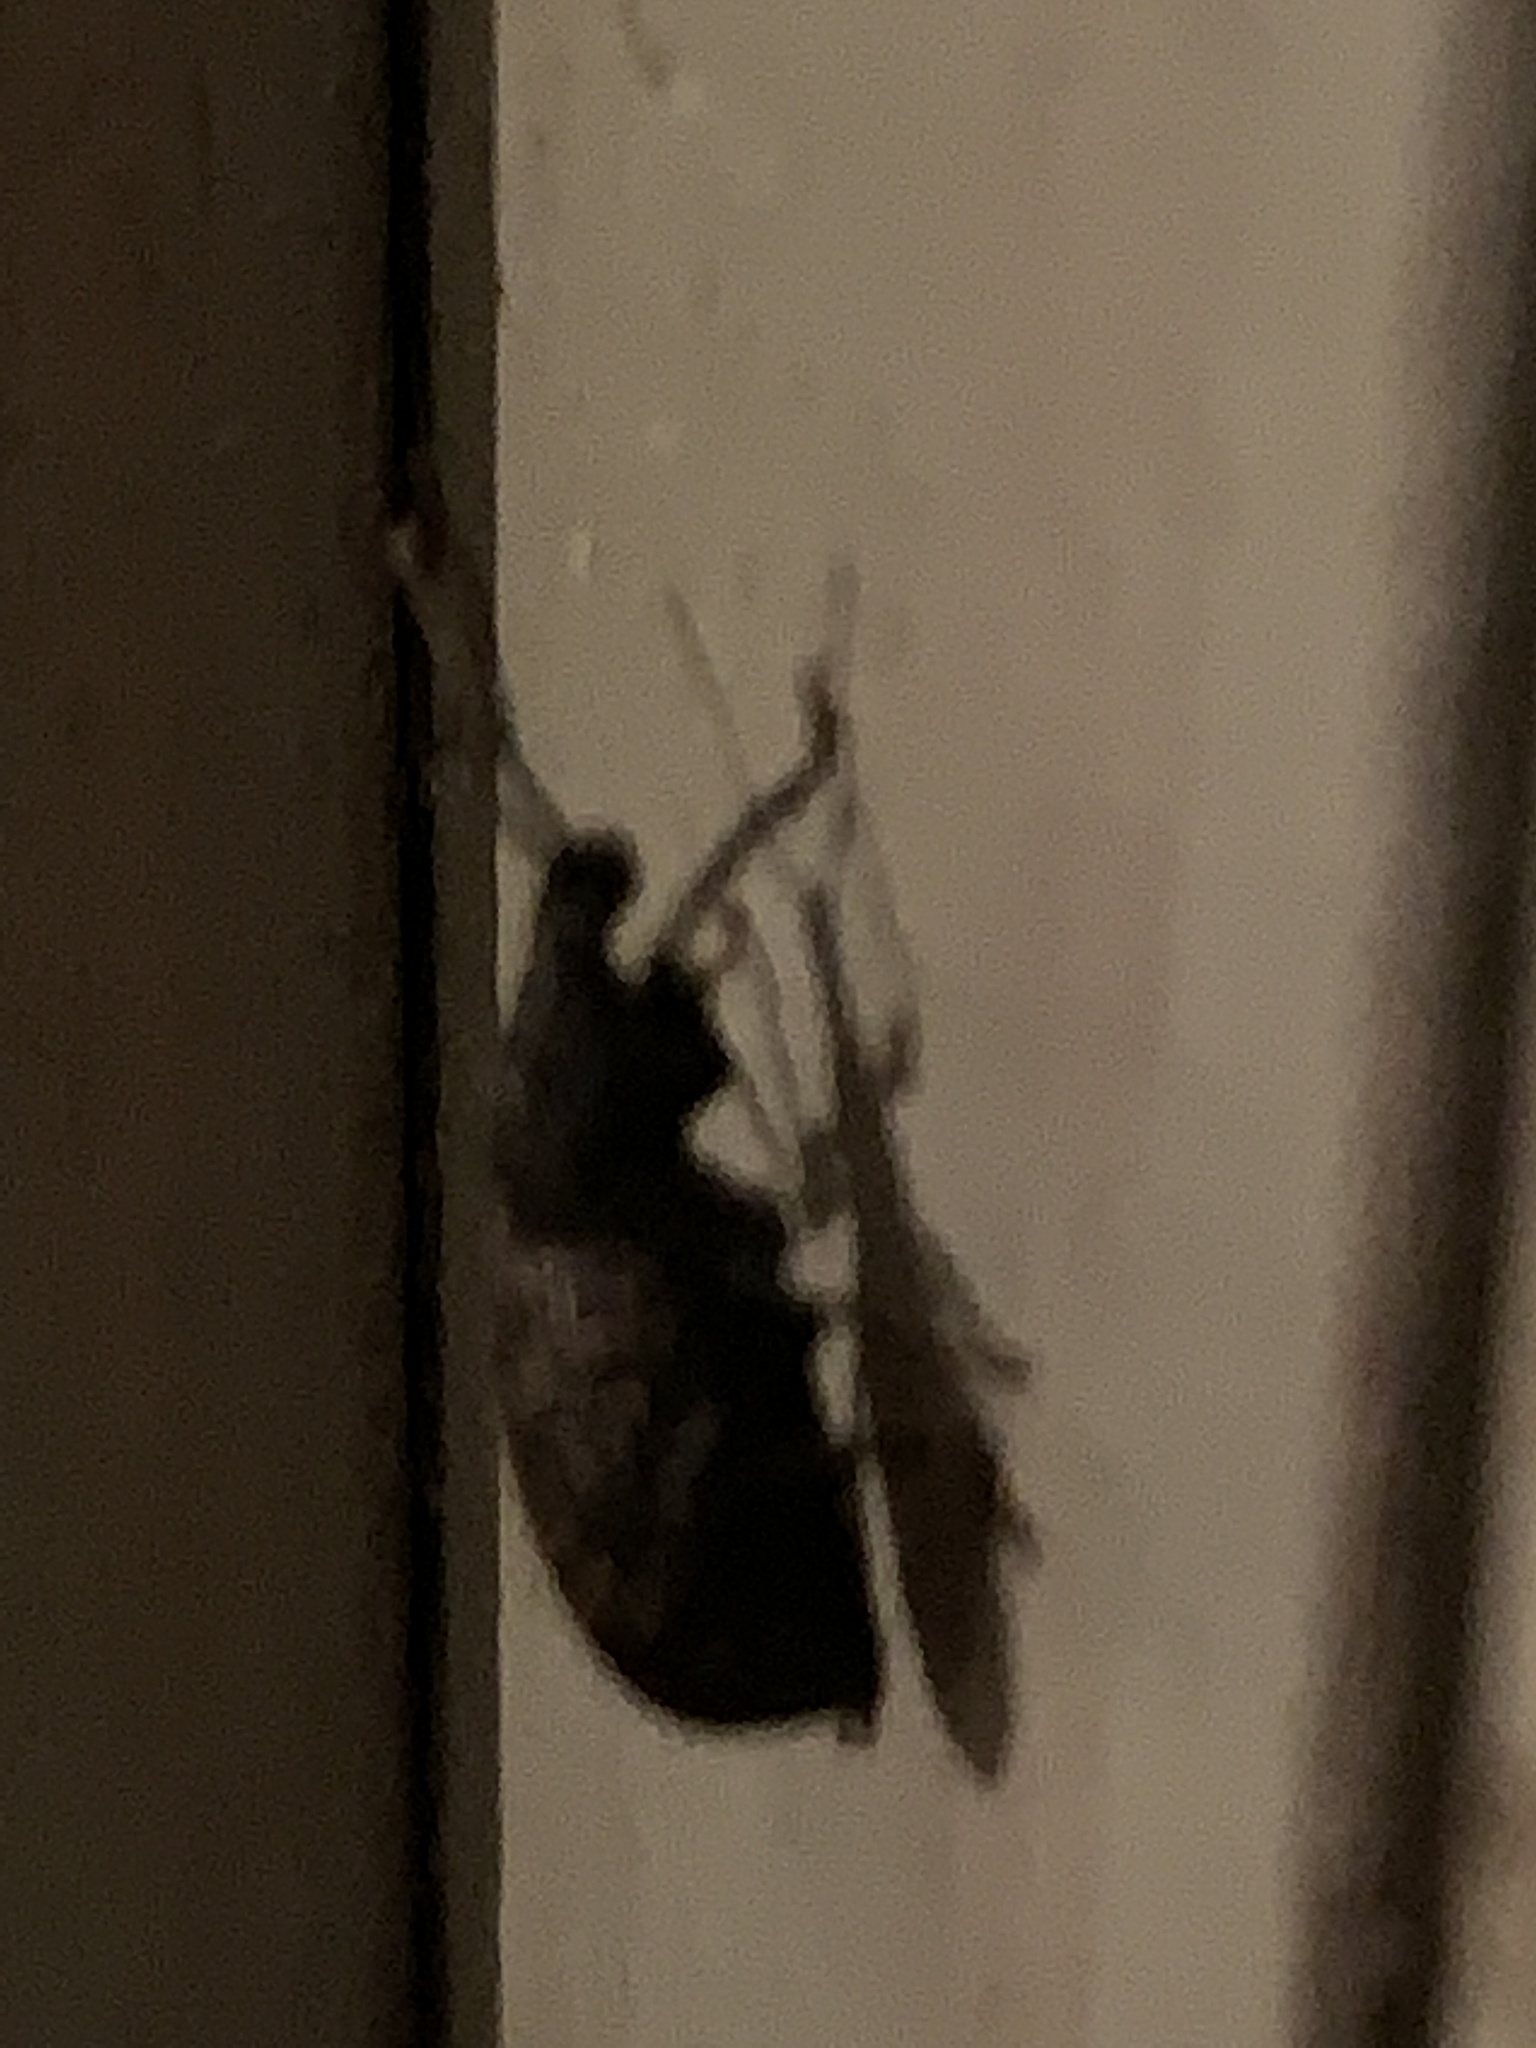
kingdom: Animalia
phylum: Arthropoda
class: Insecta
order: Coleoptera
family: Curculionidae
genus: Otiorhynchus
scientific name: Otiorhynchus sulcatus
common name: Black vine weevil
